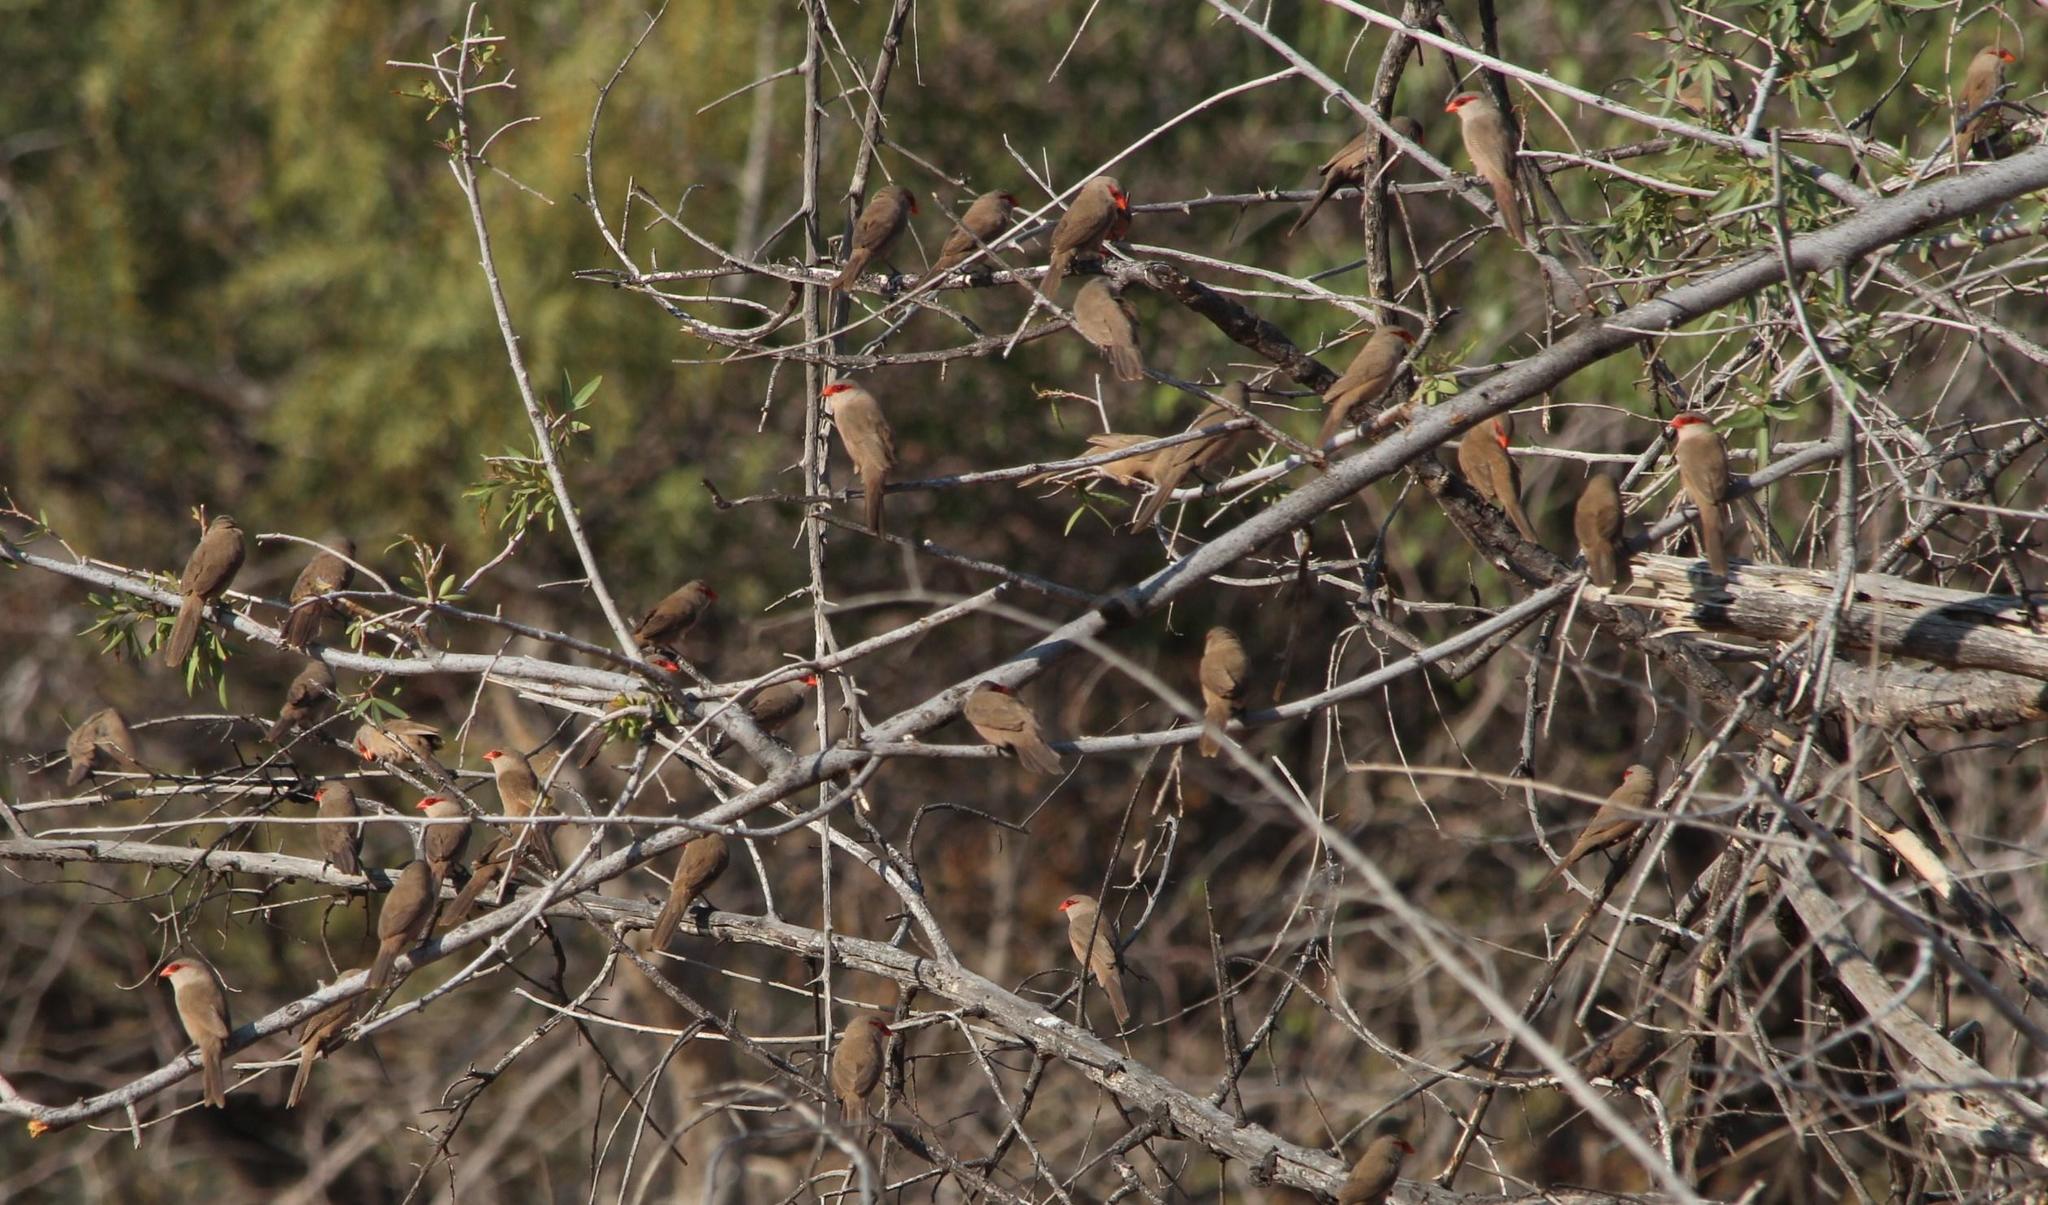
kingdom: Animalia
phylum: Chordata
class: Aves
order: Passeriformes
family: Estrildidae
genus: Estrilda
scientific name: Estrilda astrild
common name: Common waxbill
